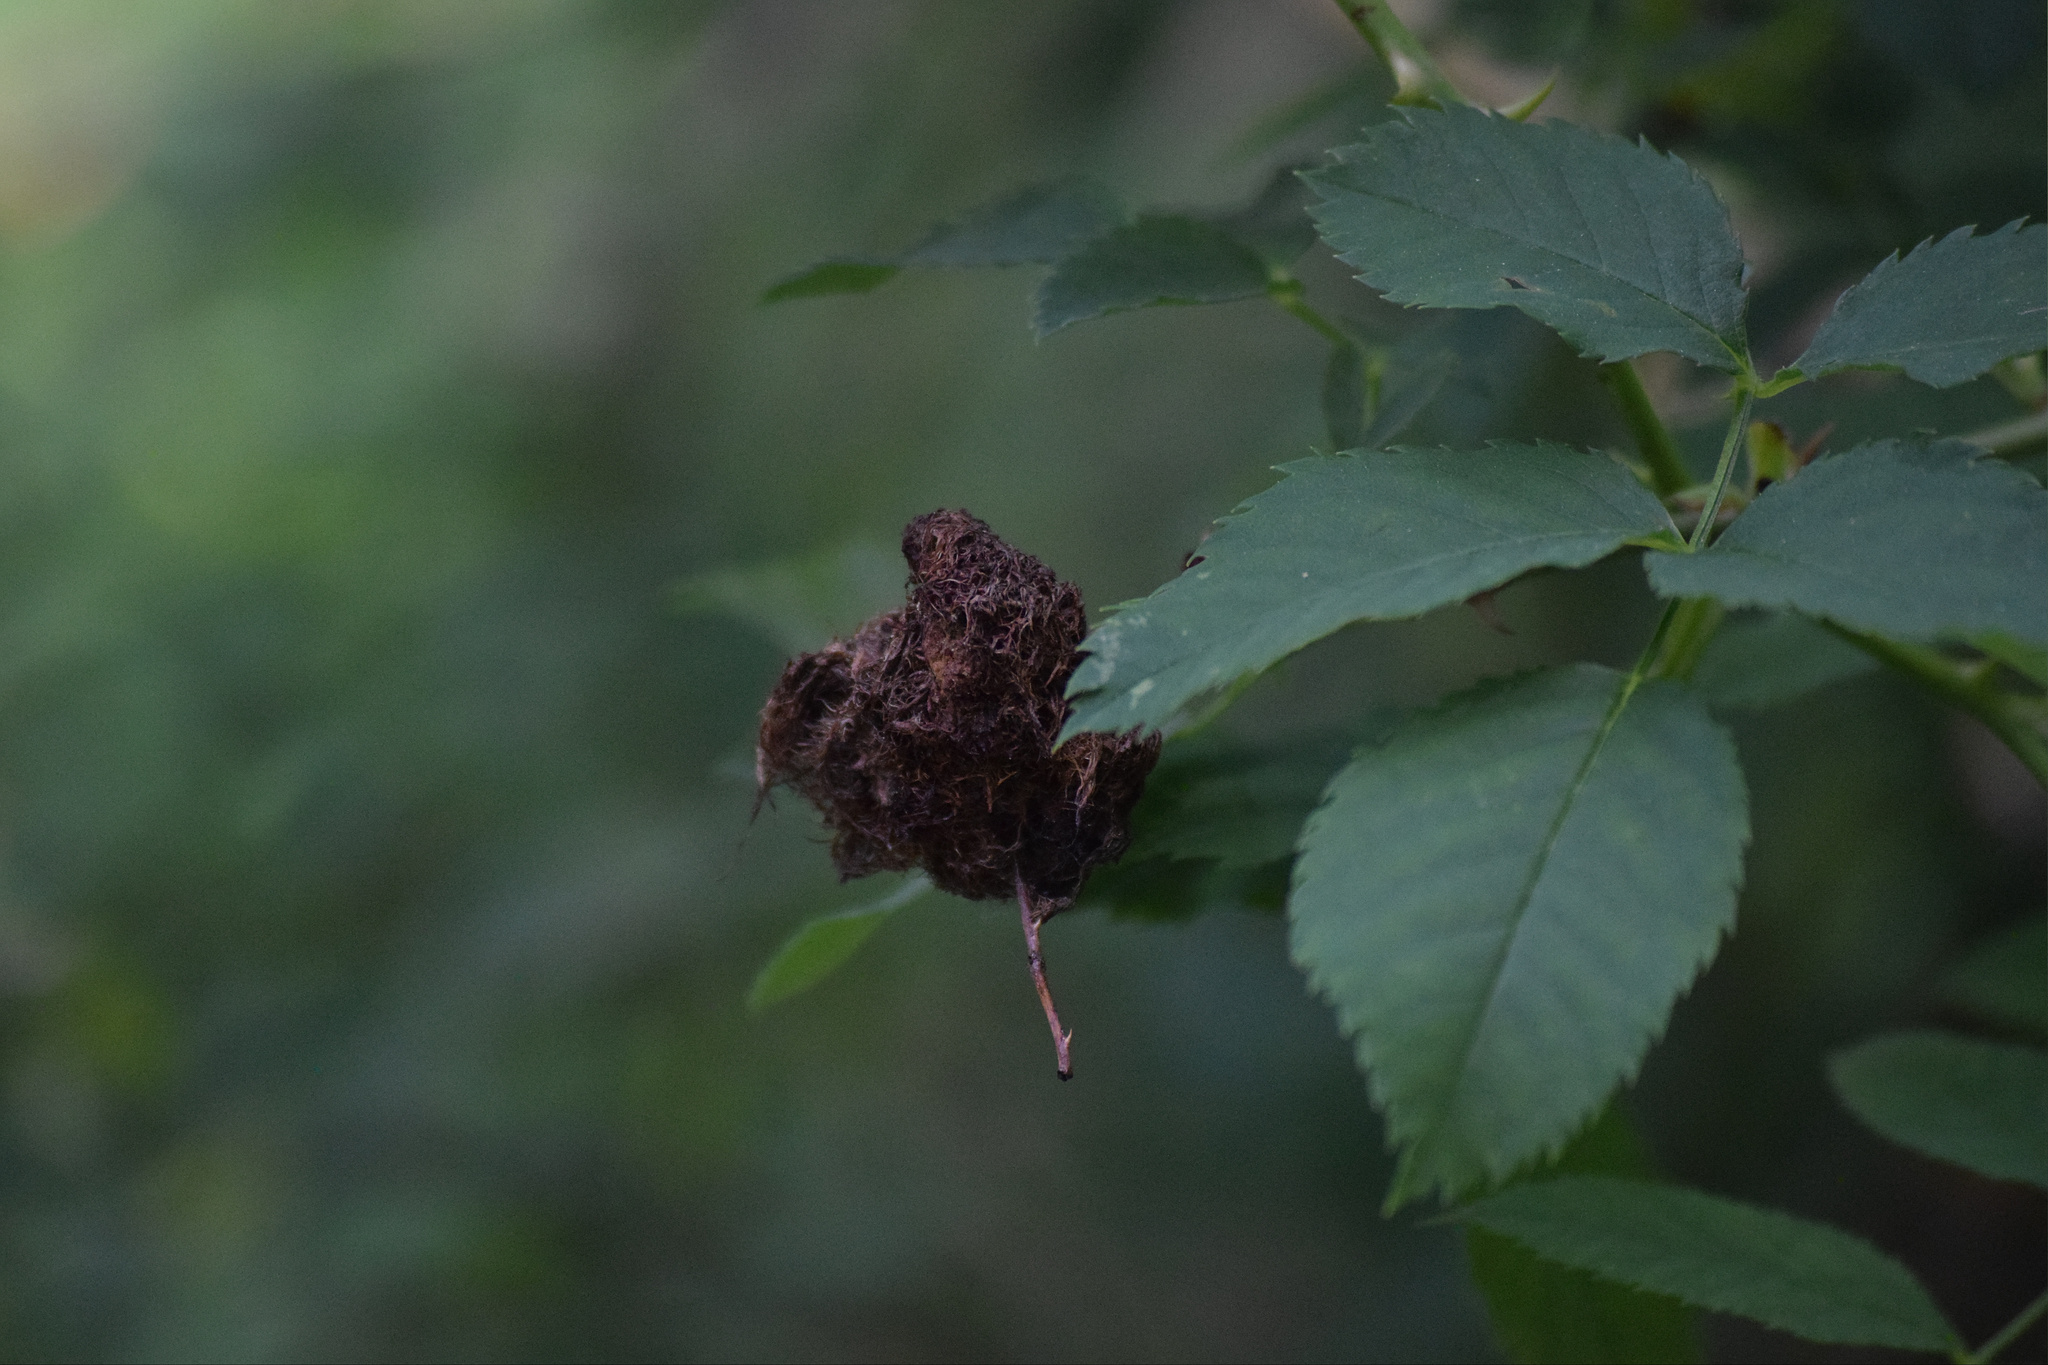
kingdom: Animalia
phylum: Arthropoda
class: Insecta
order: Hymenoptera
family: Cynipidae
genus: Diplolepis
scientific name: Diplolepis rosae
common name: Bedeguar gall
